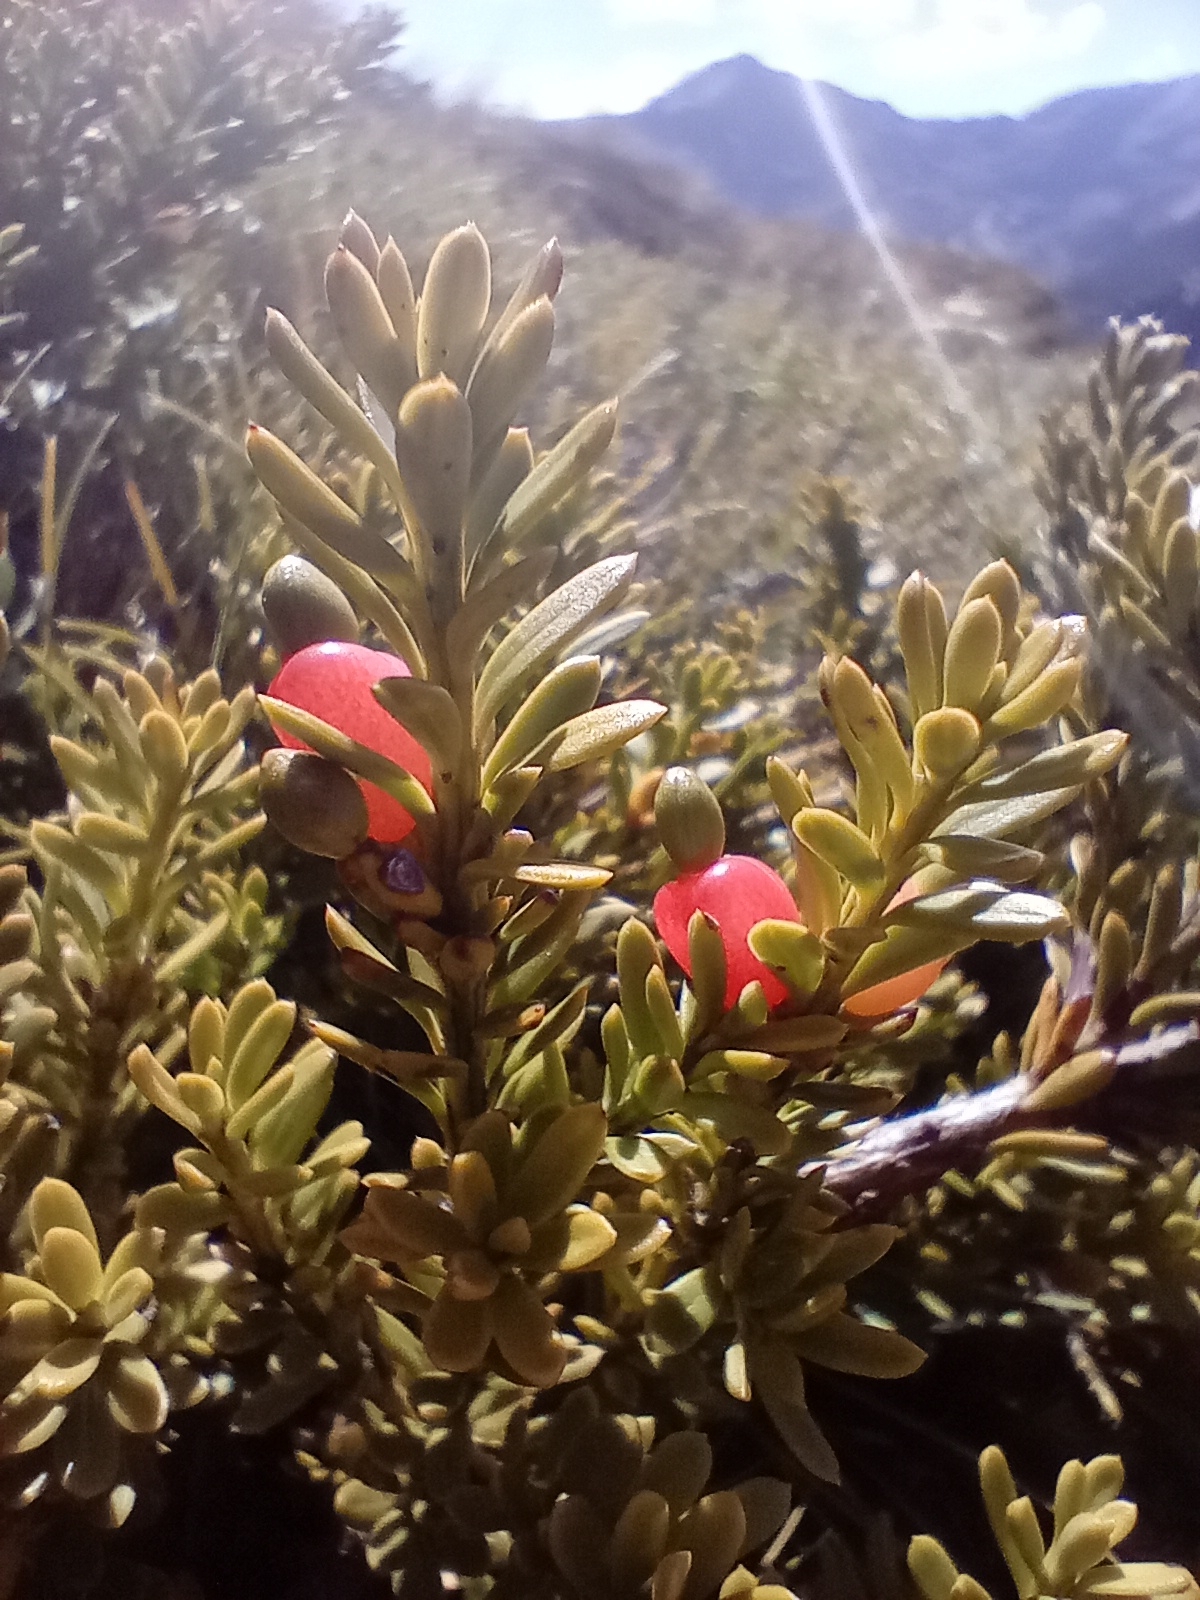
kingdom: Plantae
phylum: Tracheophyta
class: Pinopsida
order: Pinales
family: Podocarpaceae
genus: Podocarpus
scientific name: Podocarpus nivalis
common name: Alpine totara
